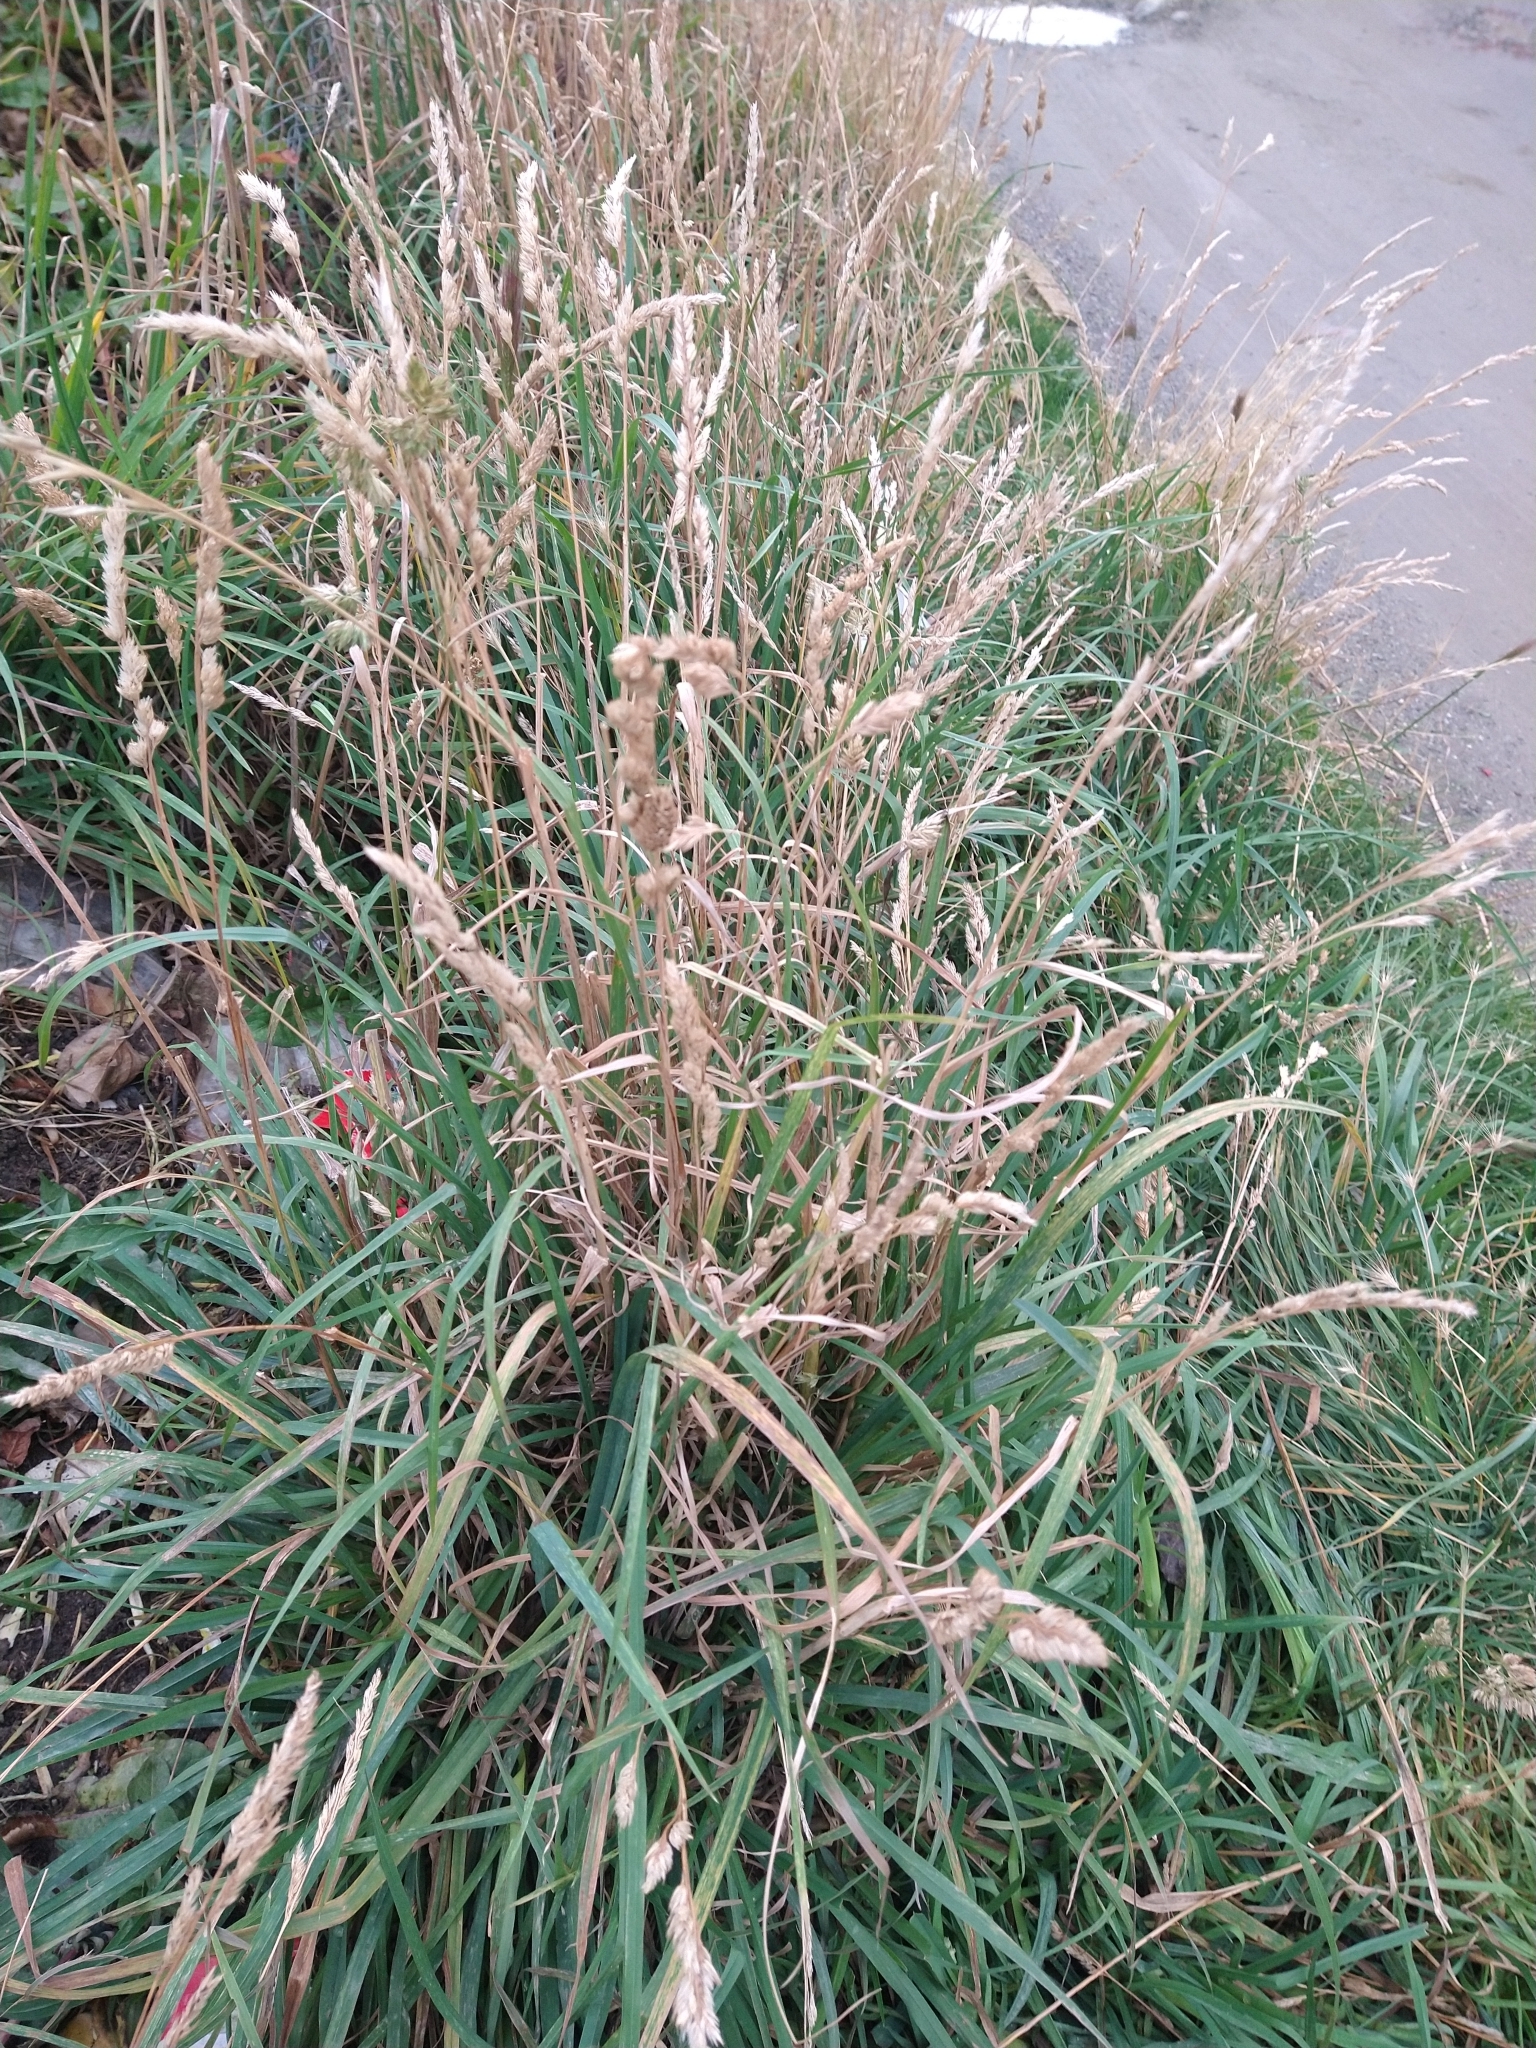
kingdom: Plantae
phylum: Tracheophyta
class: Liliopsida
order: Poales
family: Poaceae
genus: Dactylis
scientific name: Dactylis glomerata
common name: Orchardgrass
